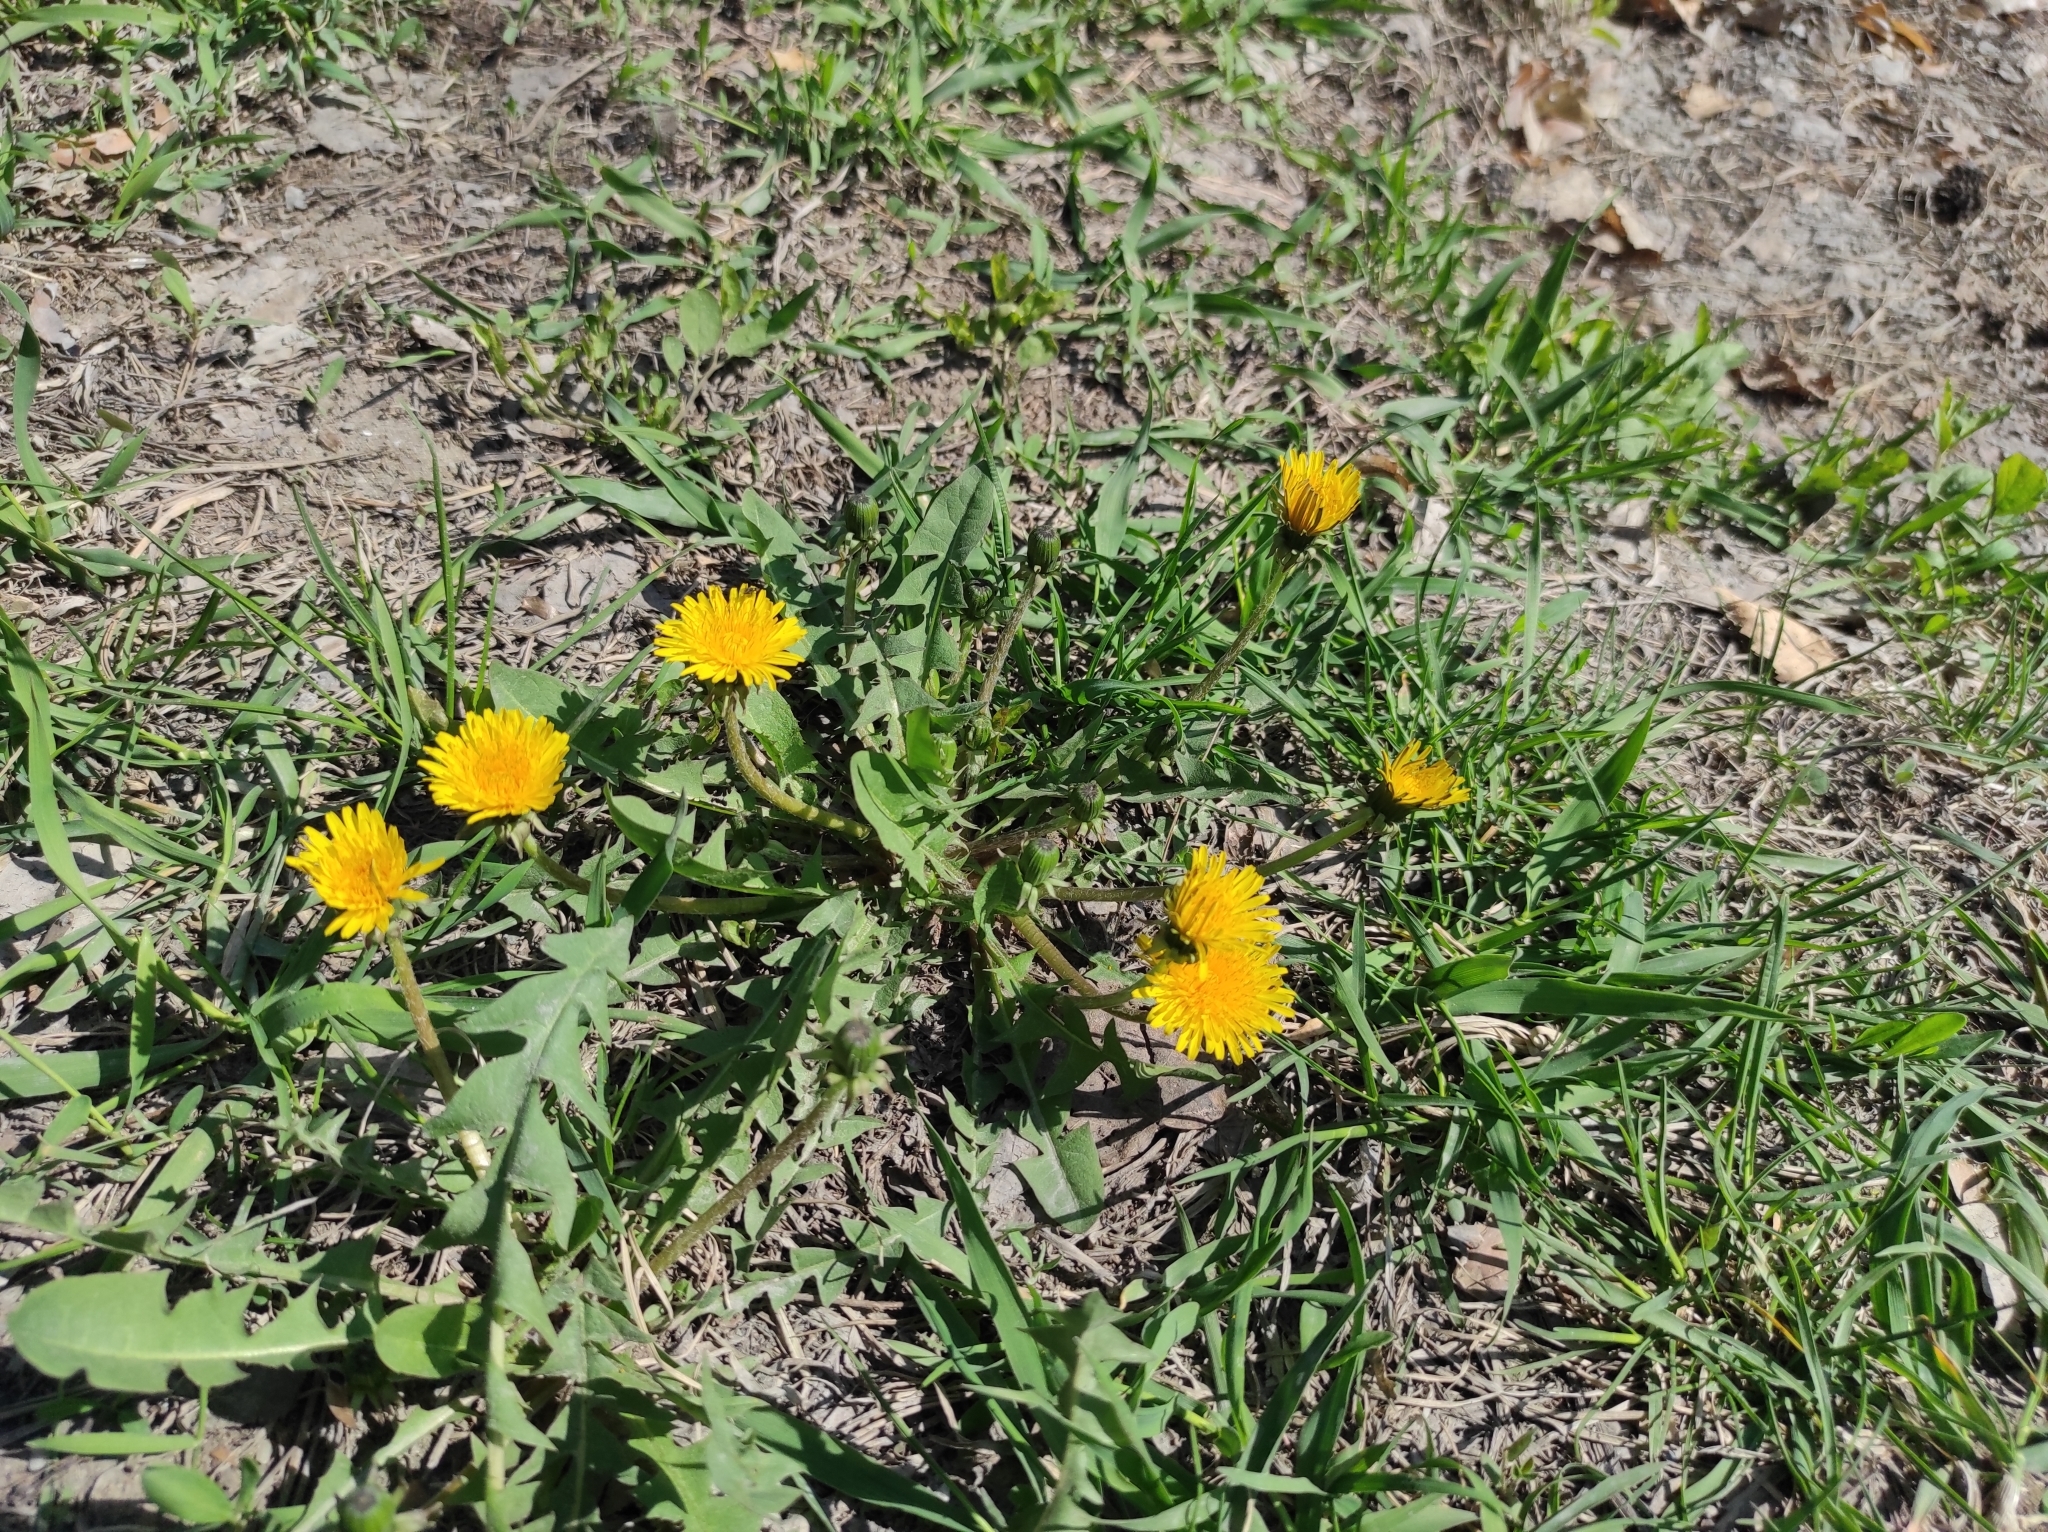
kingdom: Plantae
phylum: Tracheophyta
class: Magnoliopsida
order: Asterales
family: Asteraceae
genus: Taraxacum
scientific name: Taraxacum officinale
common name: Common dandelion
